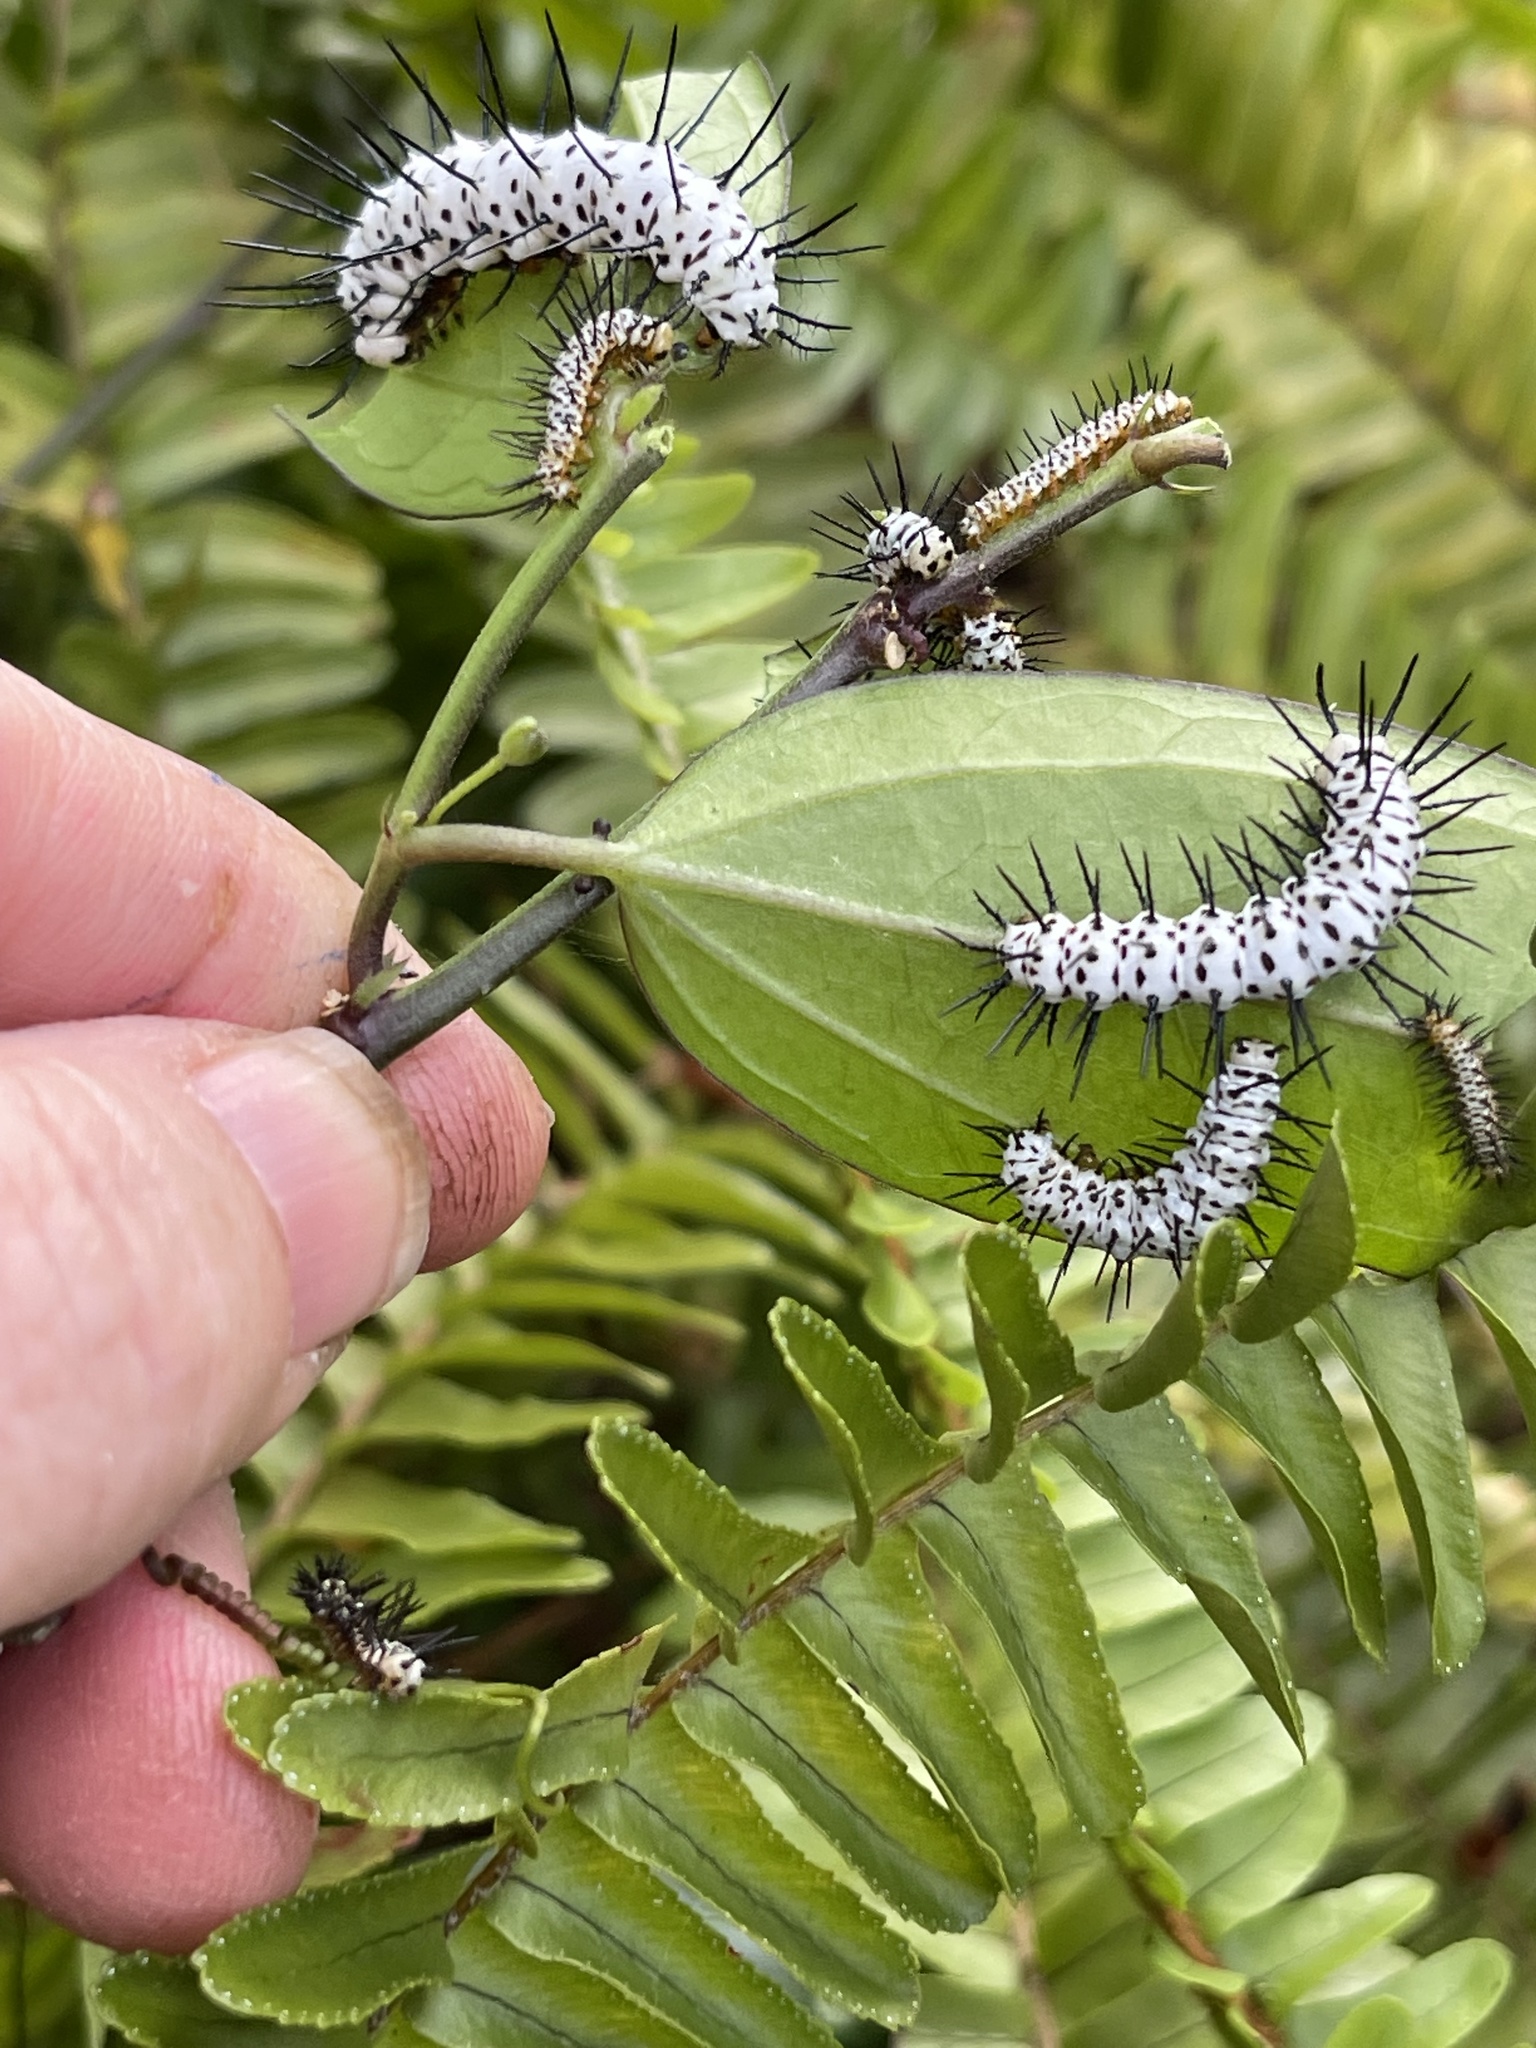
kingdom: Animalia
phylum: Arthropoda
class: Insecta
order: Lepidoptera
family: Nymphalidae
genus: Heliconius
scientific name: Heliconius charithonia
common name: Zebra long wing
